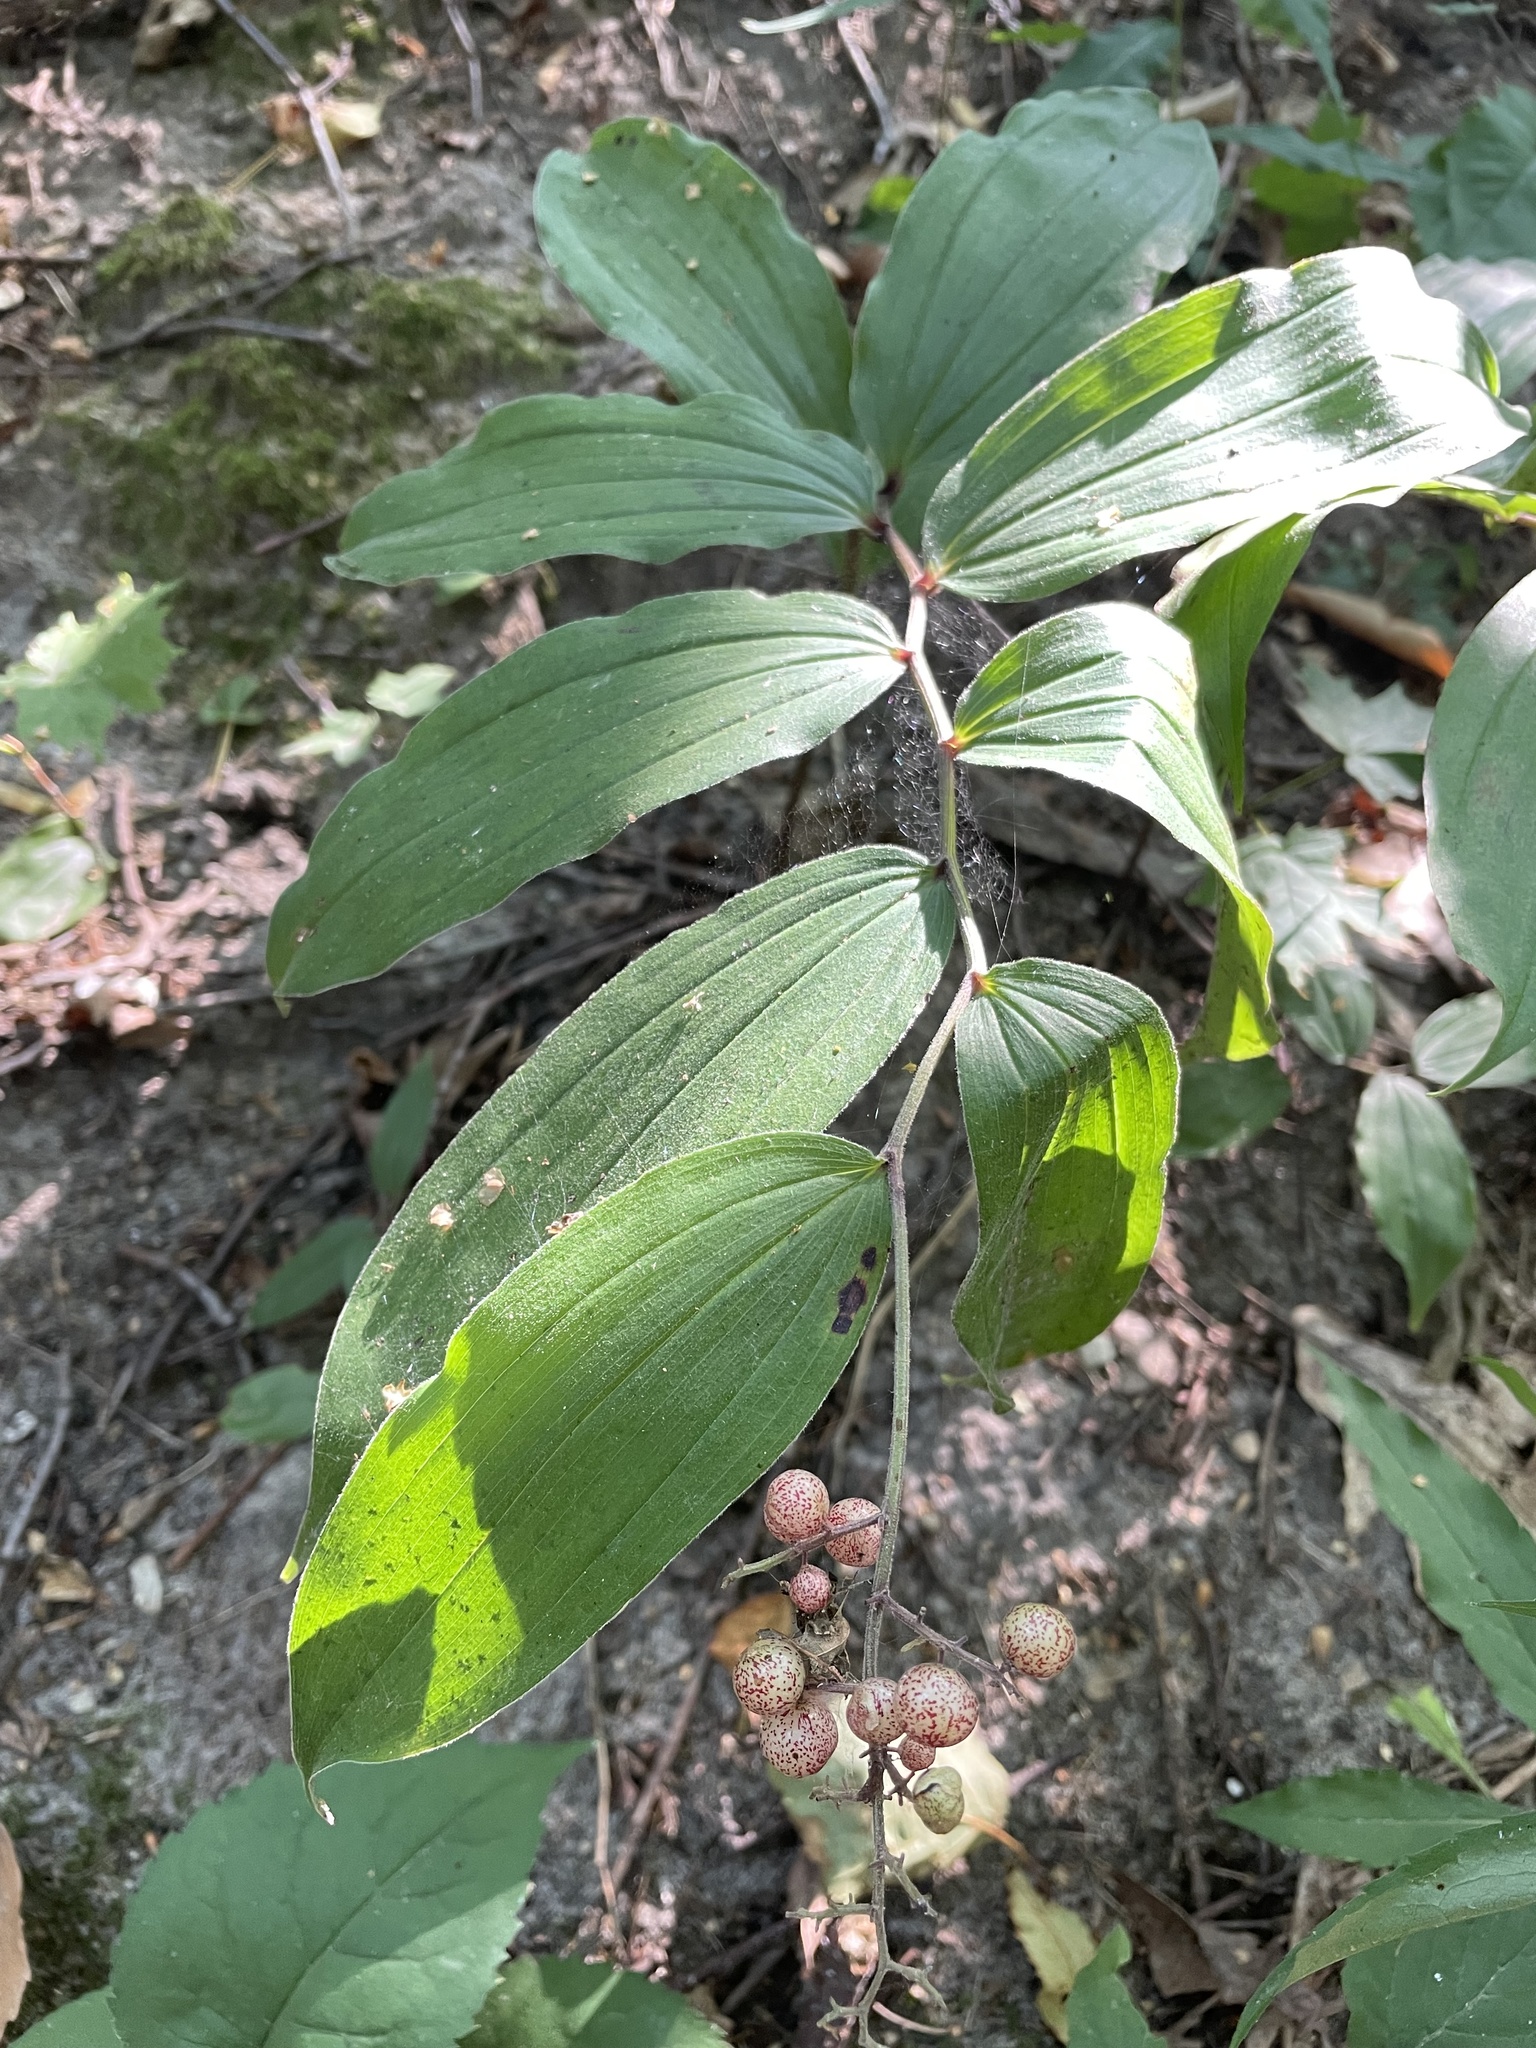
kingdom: Plantae
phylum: Tracheophyta
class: Liliopsida
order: Asparagales
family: Asparagaceae
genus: Maianthemum
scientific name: Maianthemum racemosum
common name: False spikenard
